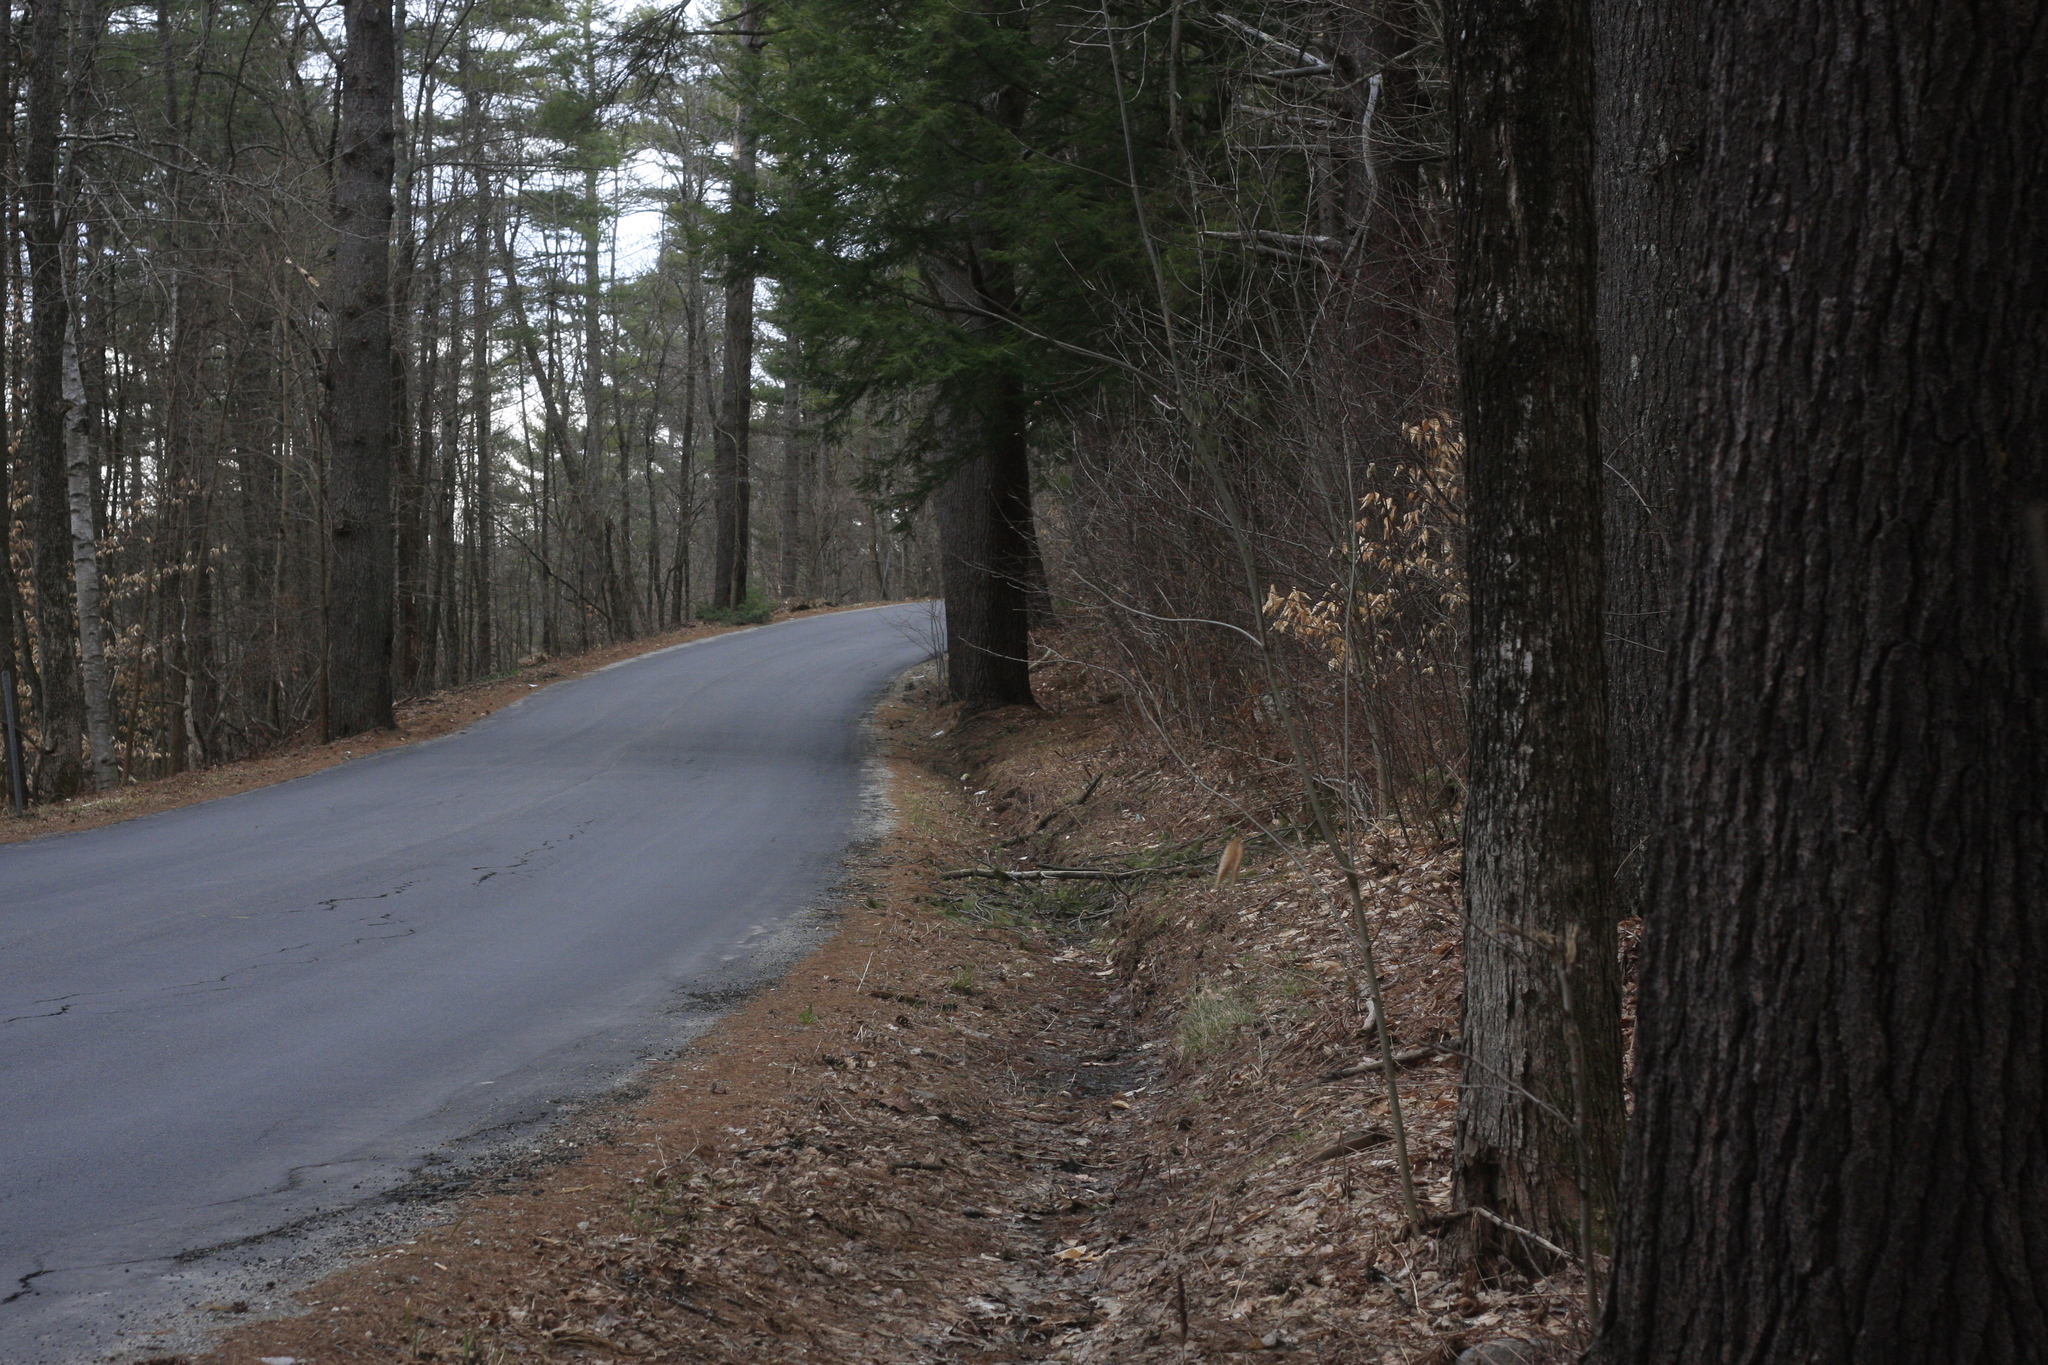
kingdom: Plantae
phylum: Tracheophyta
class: Magnoliopsida
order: Fagales
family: Fagaceae
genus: Fagus
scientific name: Fagus grandifolia
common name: American beech
